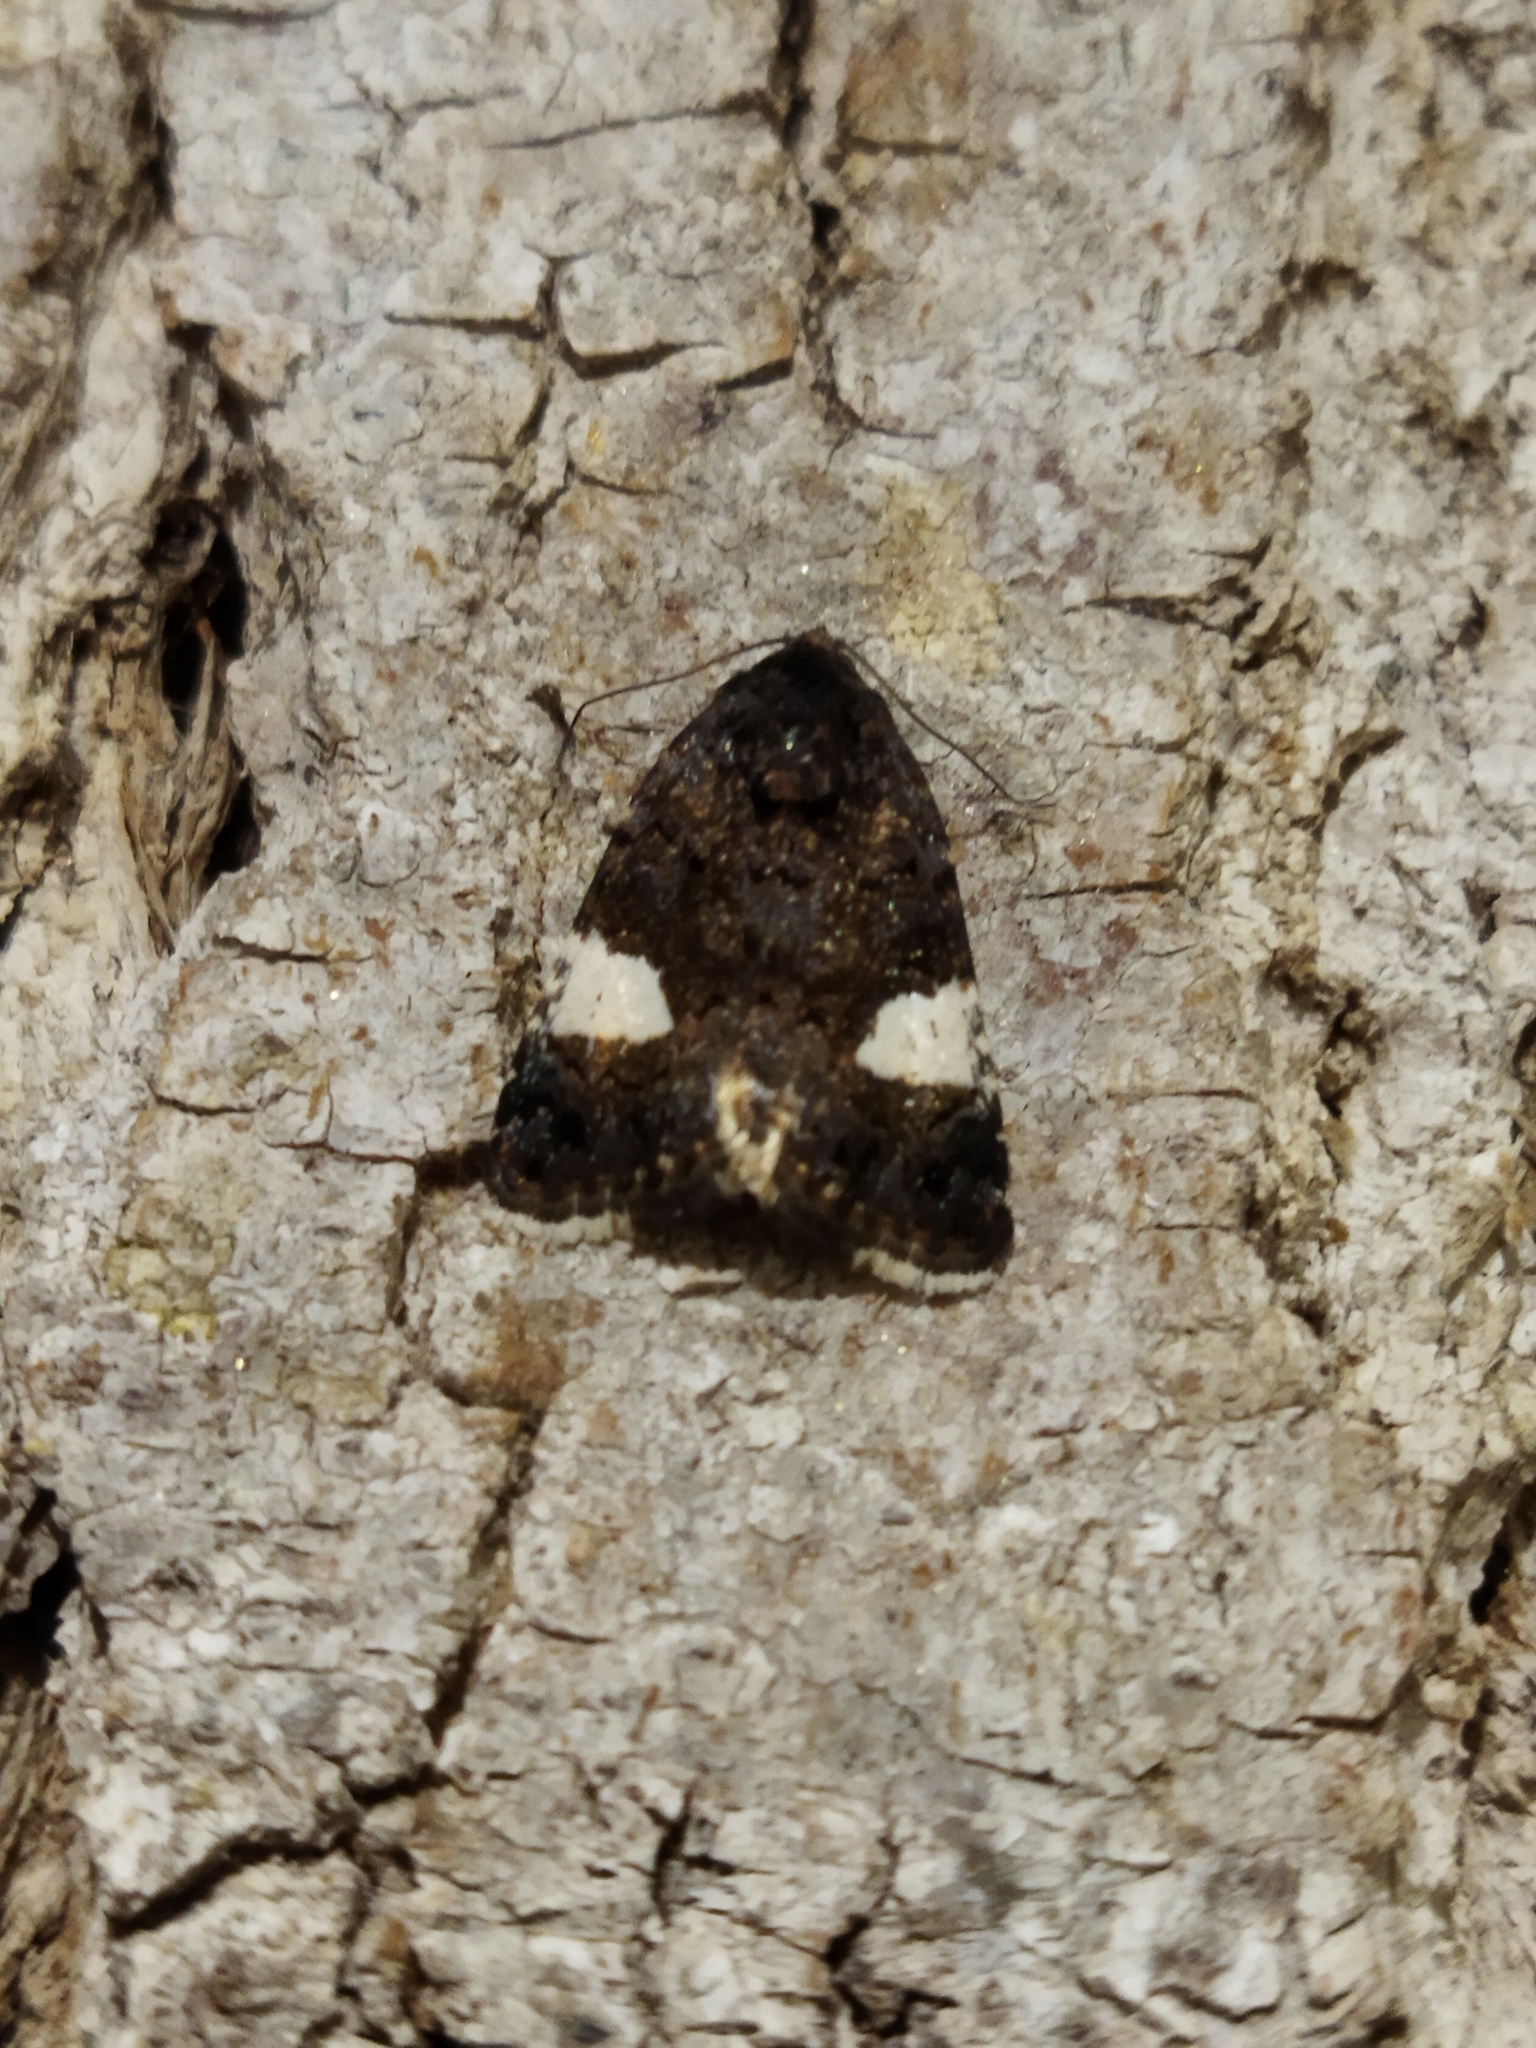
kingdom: Animalia
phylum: Arthropoda
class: Insecta
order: Lepidoptera
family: Erebidae
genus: Tyta
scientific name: Tyta luctuosa
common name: Four-spotted
